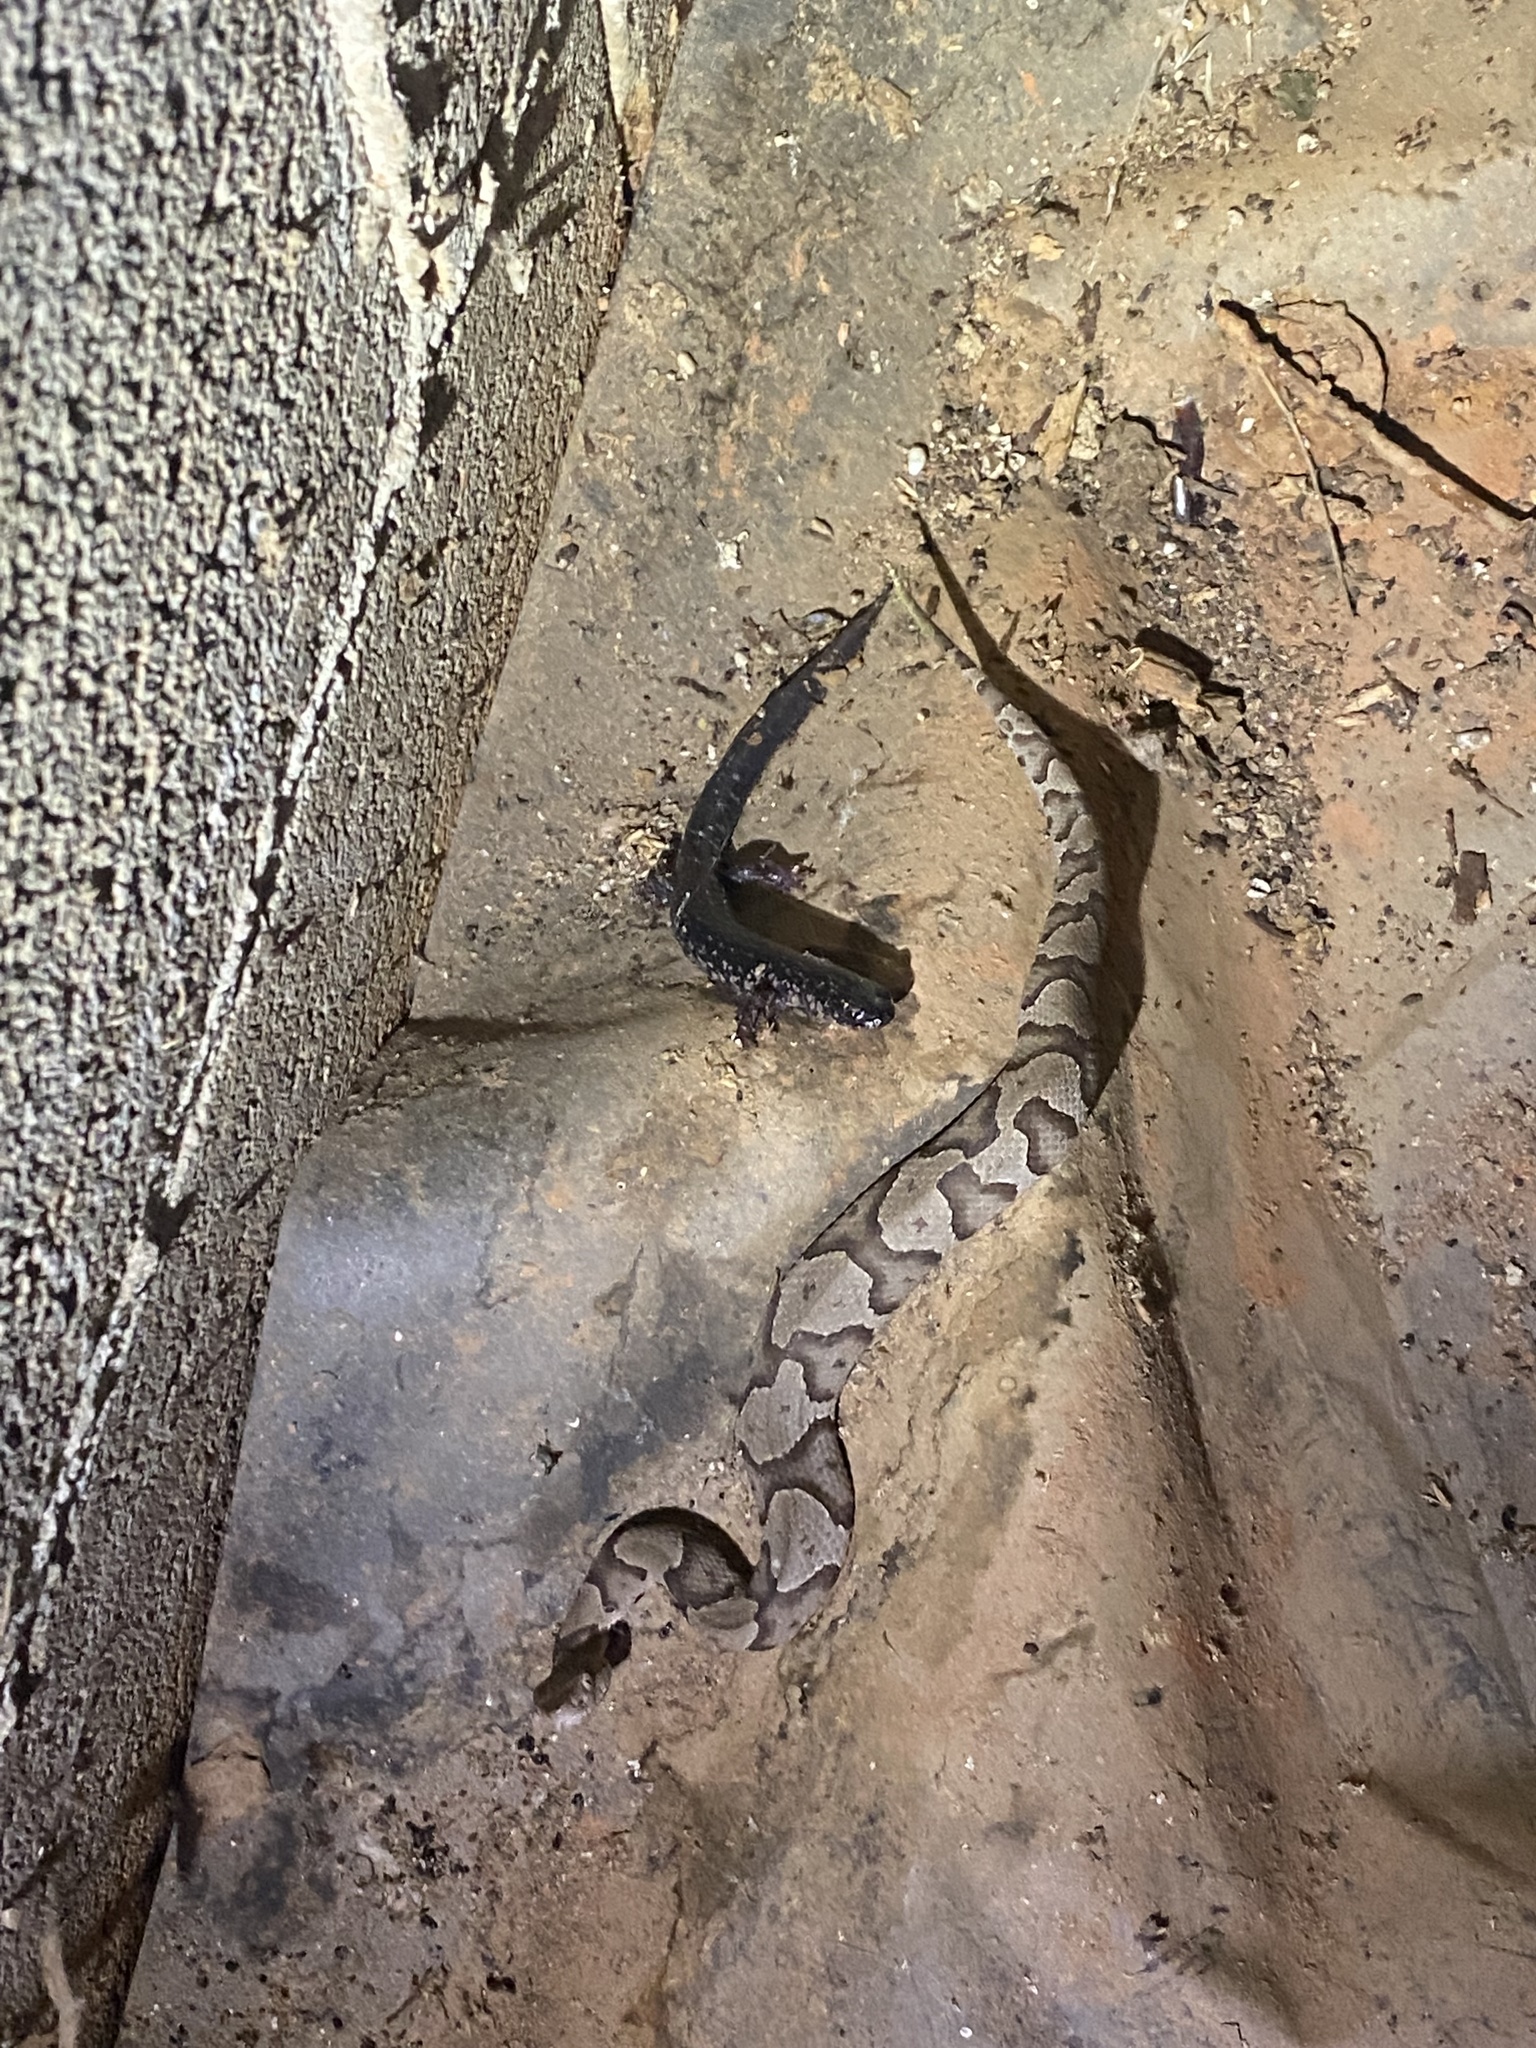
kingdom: Animalia
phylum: Chordata
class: Squamata
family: Viperidae
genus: Agkistrodon
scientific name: Agkistrodon contortrix
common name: Northern copperhead
